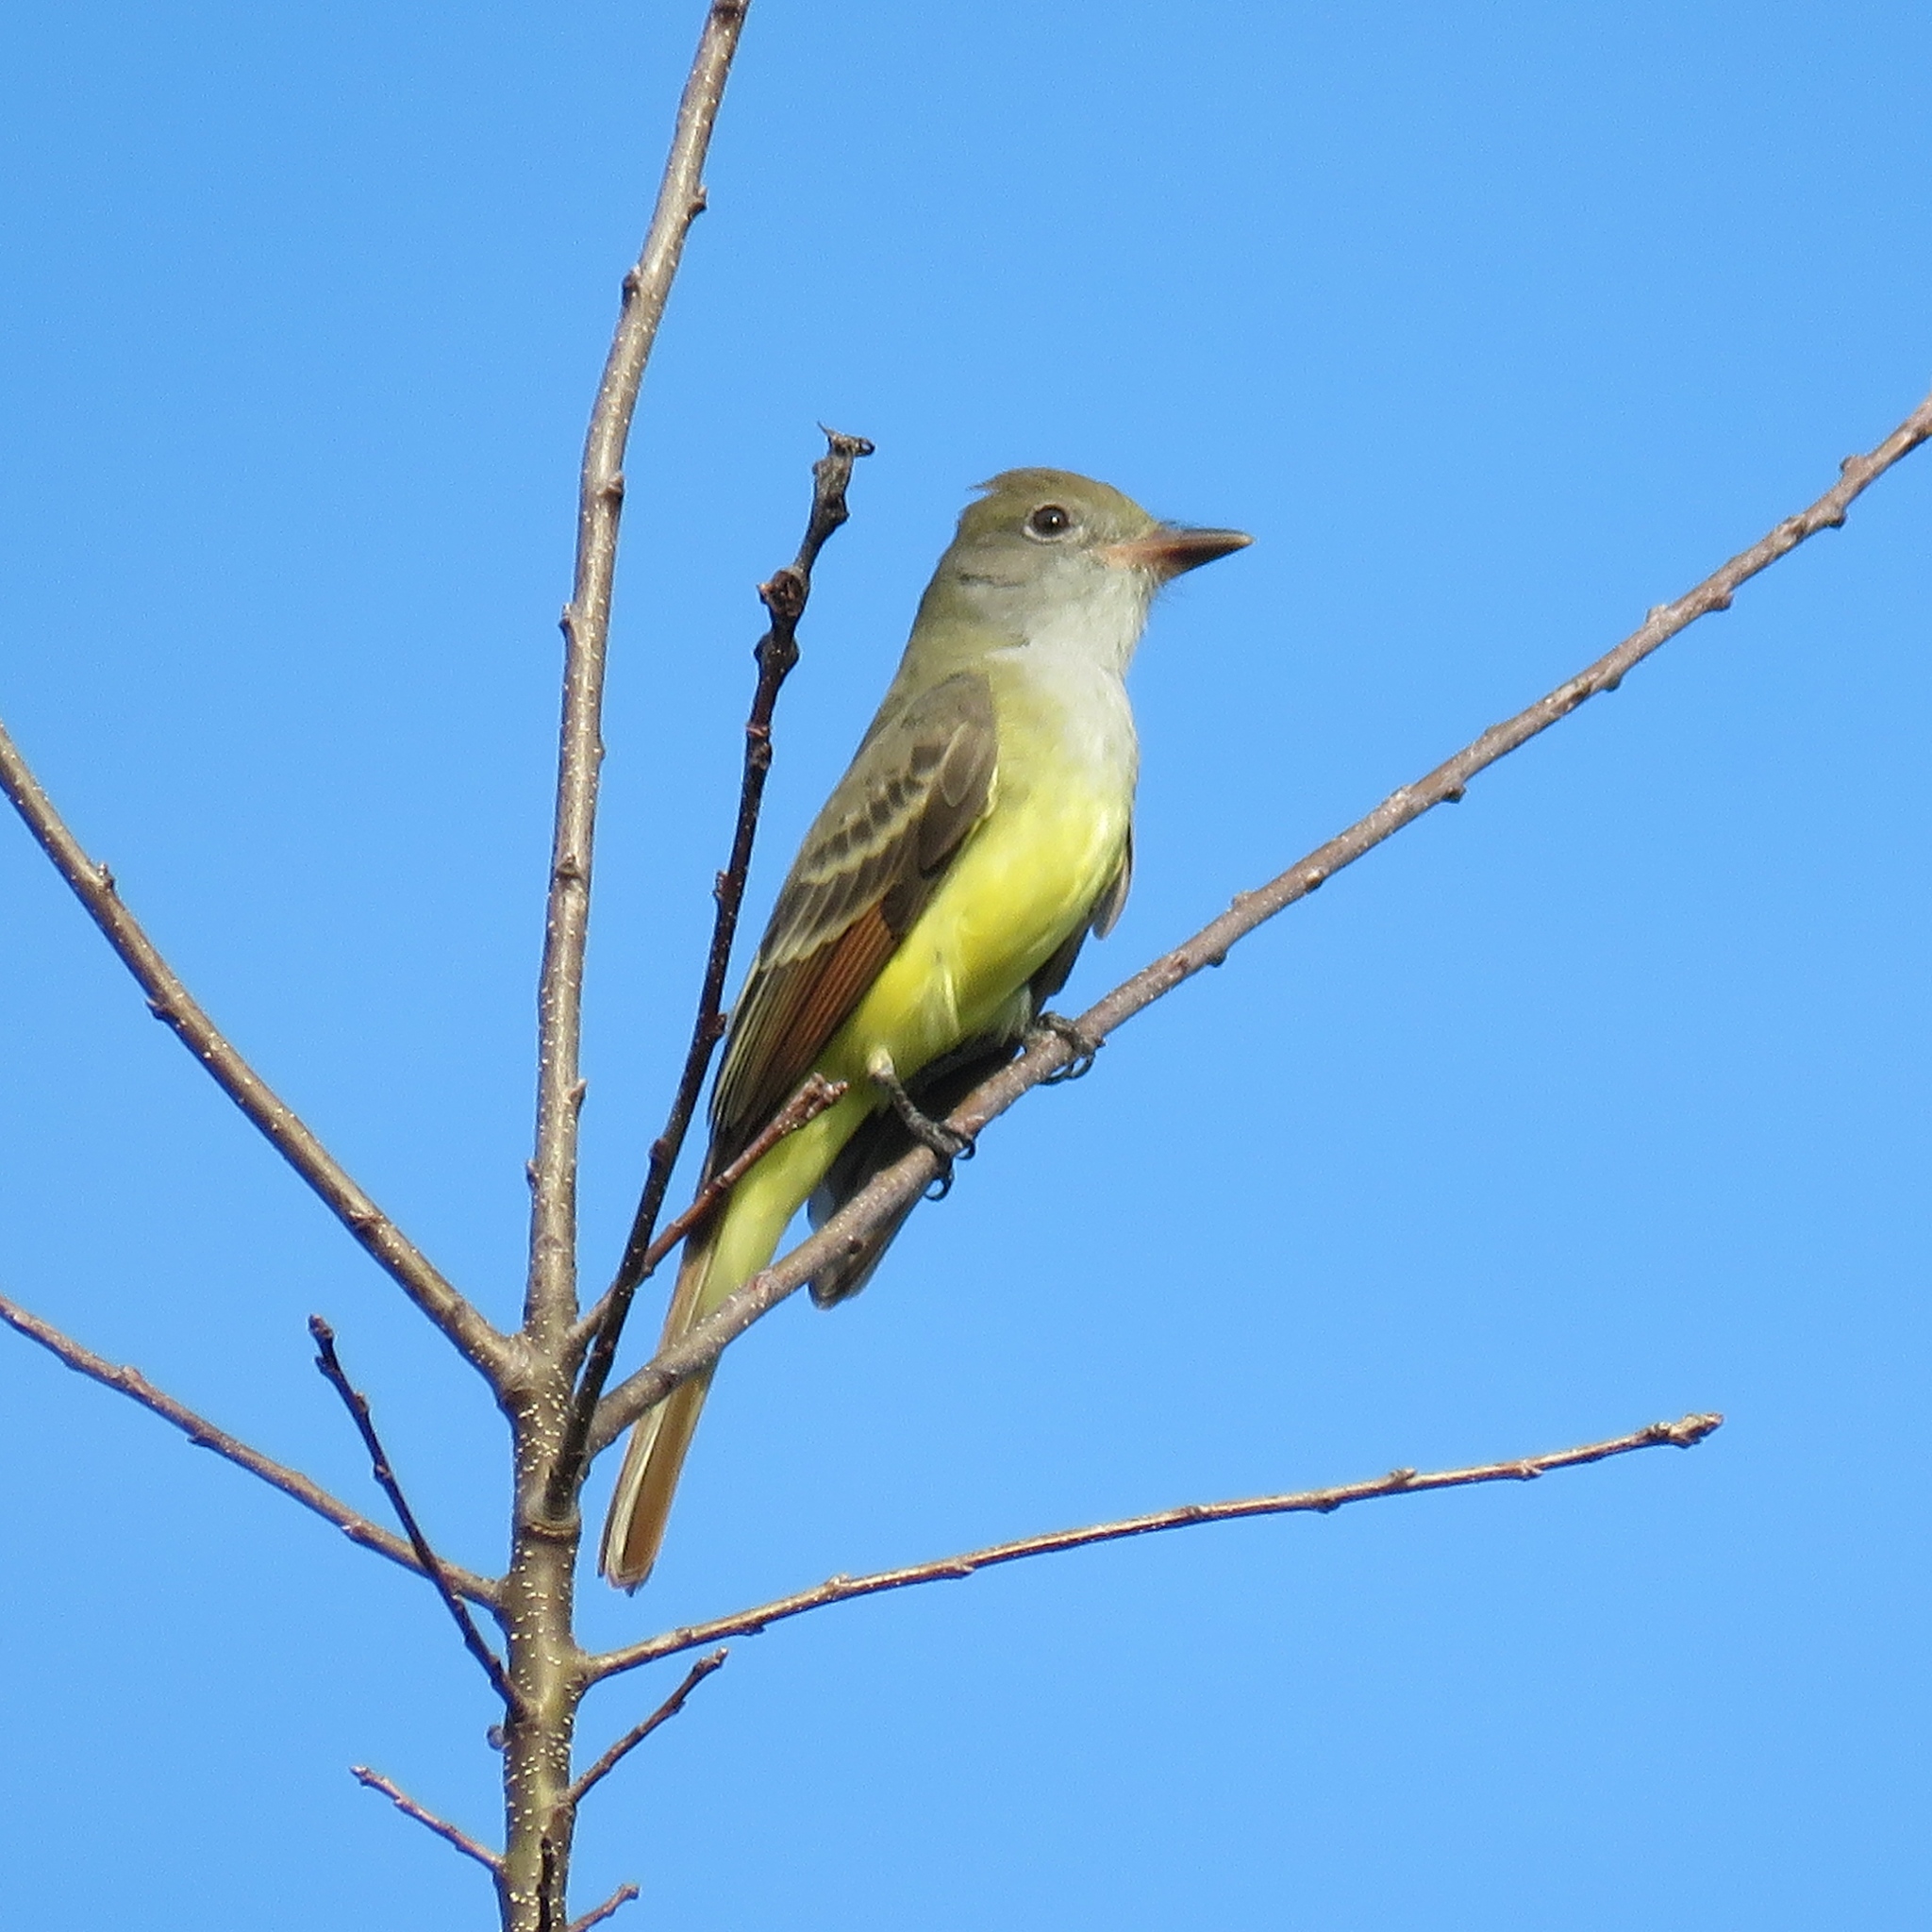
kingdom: Animalia
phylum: Chordata
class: Aves
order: Passeriformes
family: Tyrannidae
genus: Myiarchus
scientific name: Myiarchus crinitus
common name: Great crested flycatcher
